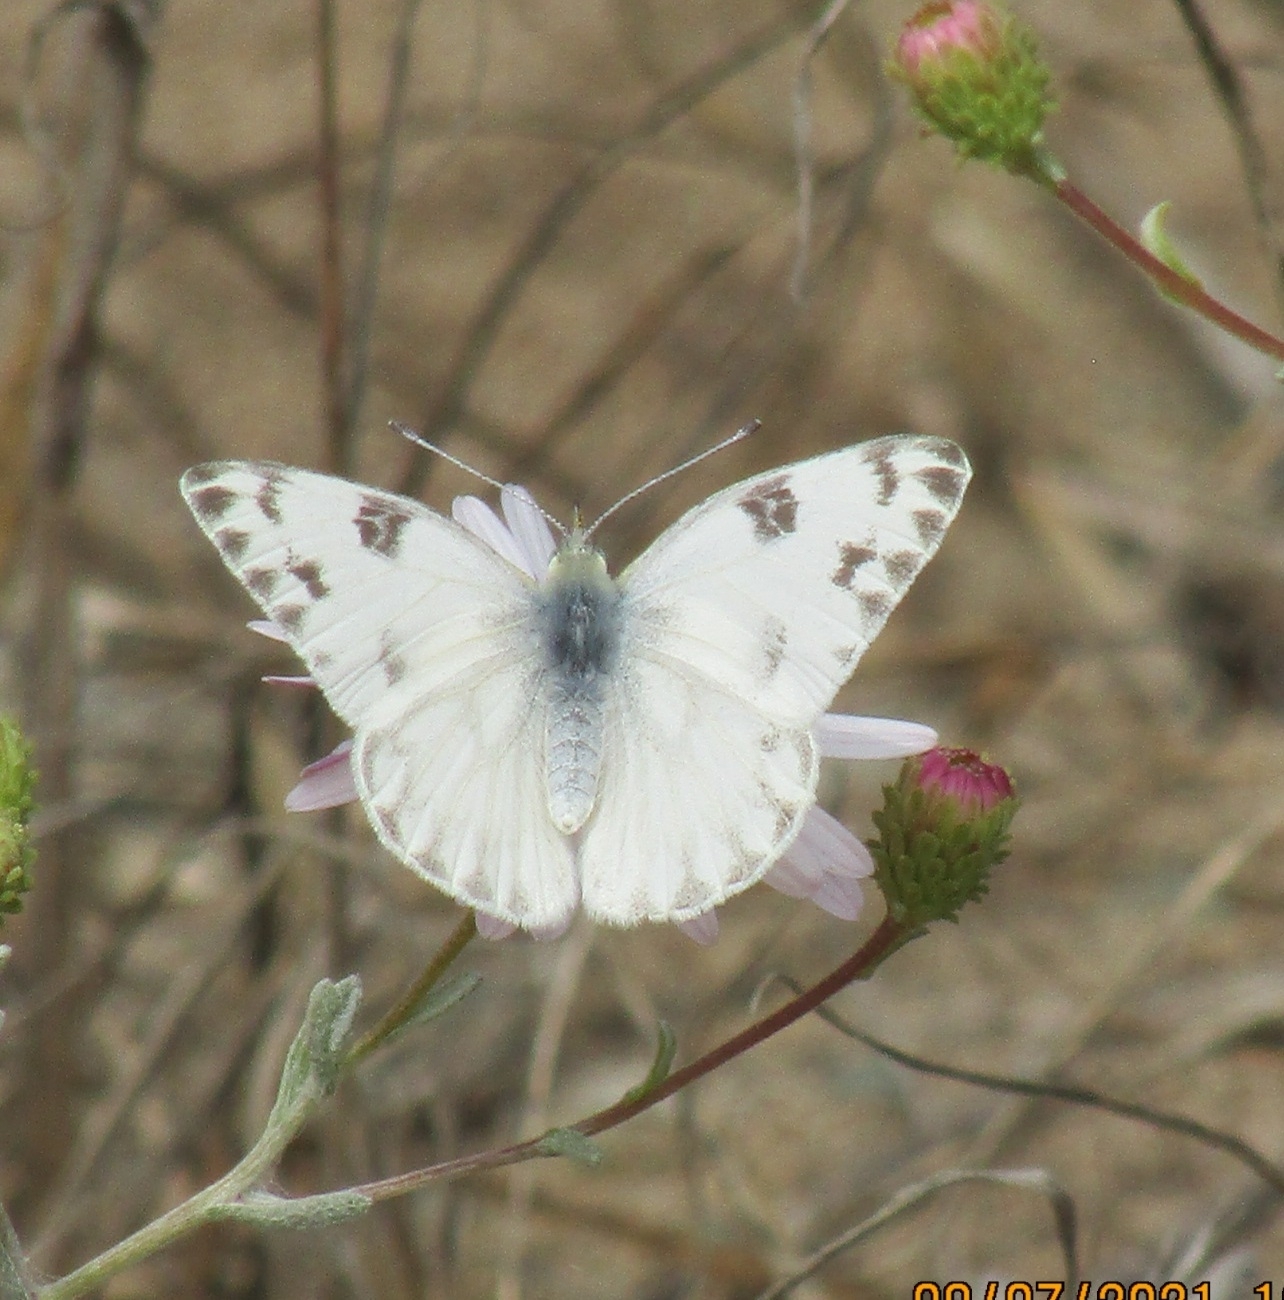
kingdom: Animalia
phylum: Arthropoda
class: Insecta
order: Lepidoptera
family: Pieridae
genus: Pontia
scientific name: Pontia protodice
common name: Checkered white
